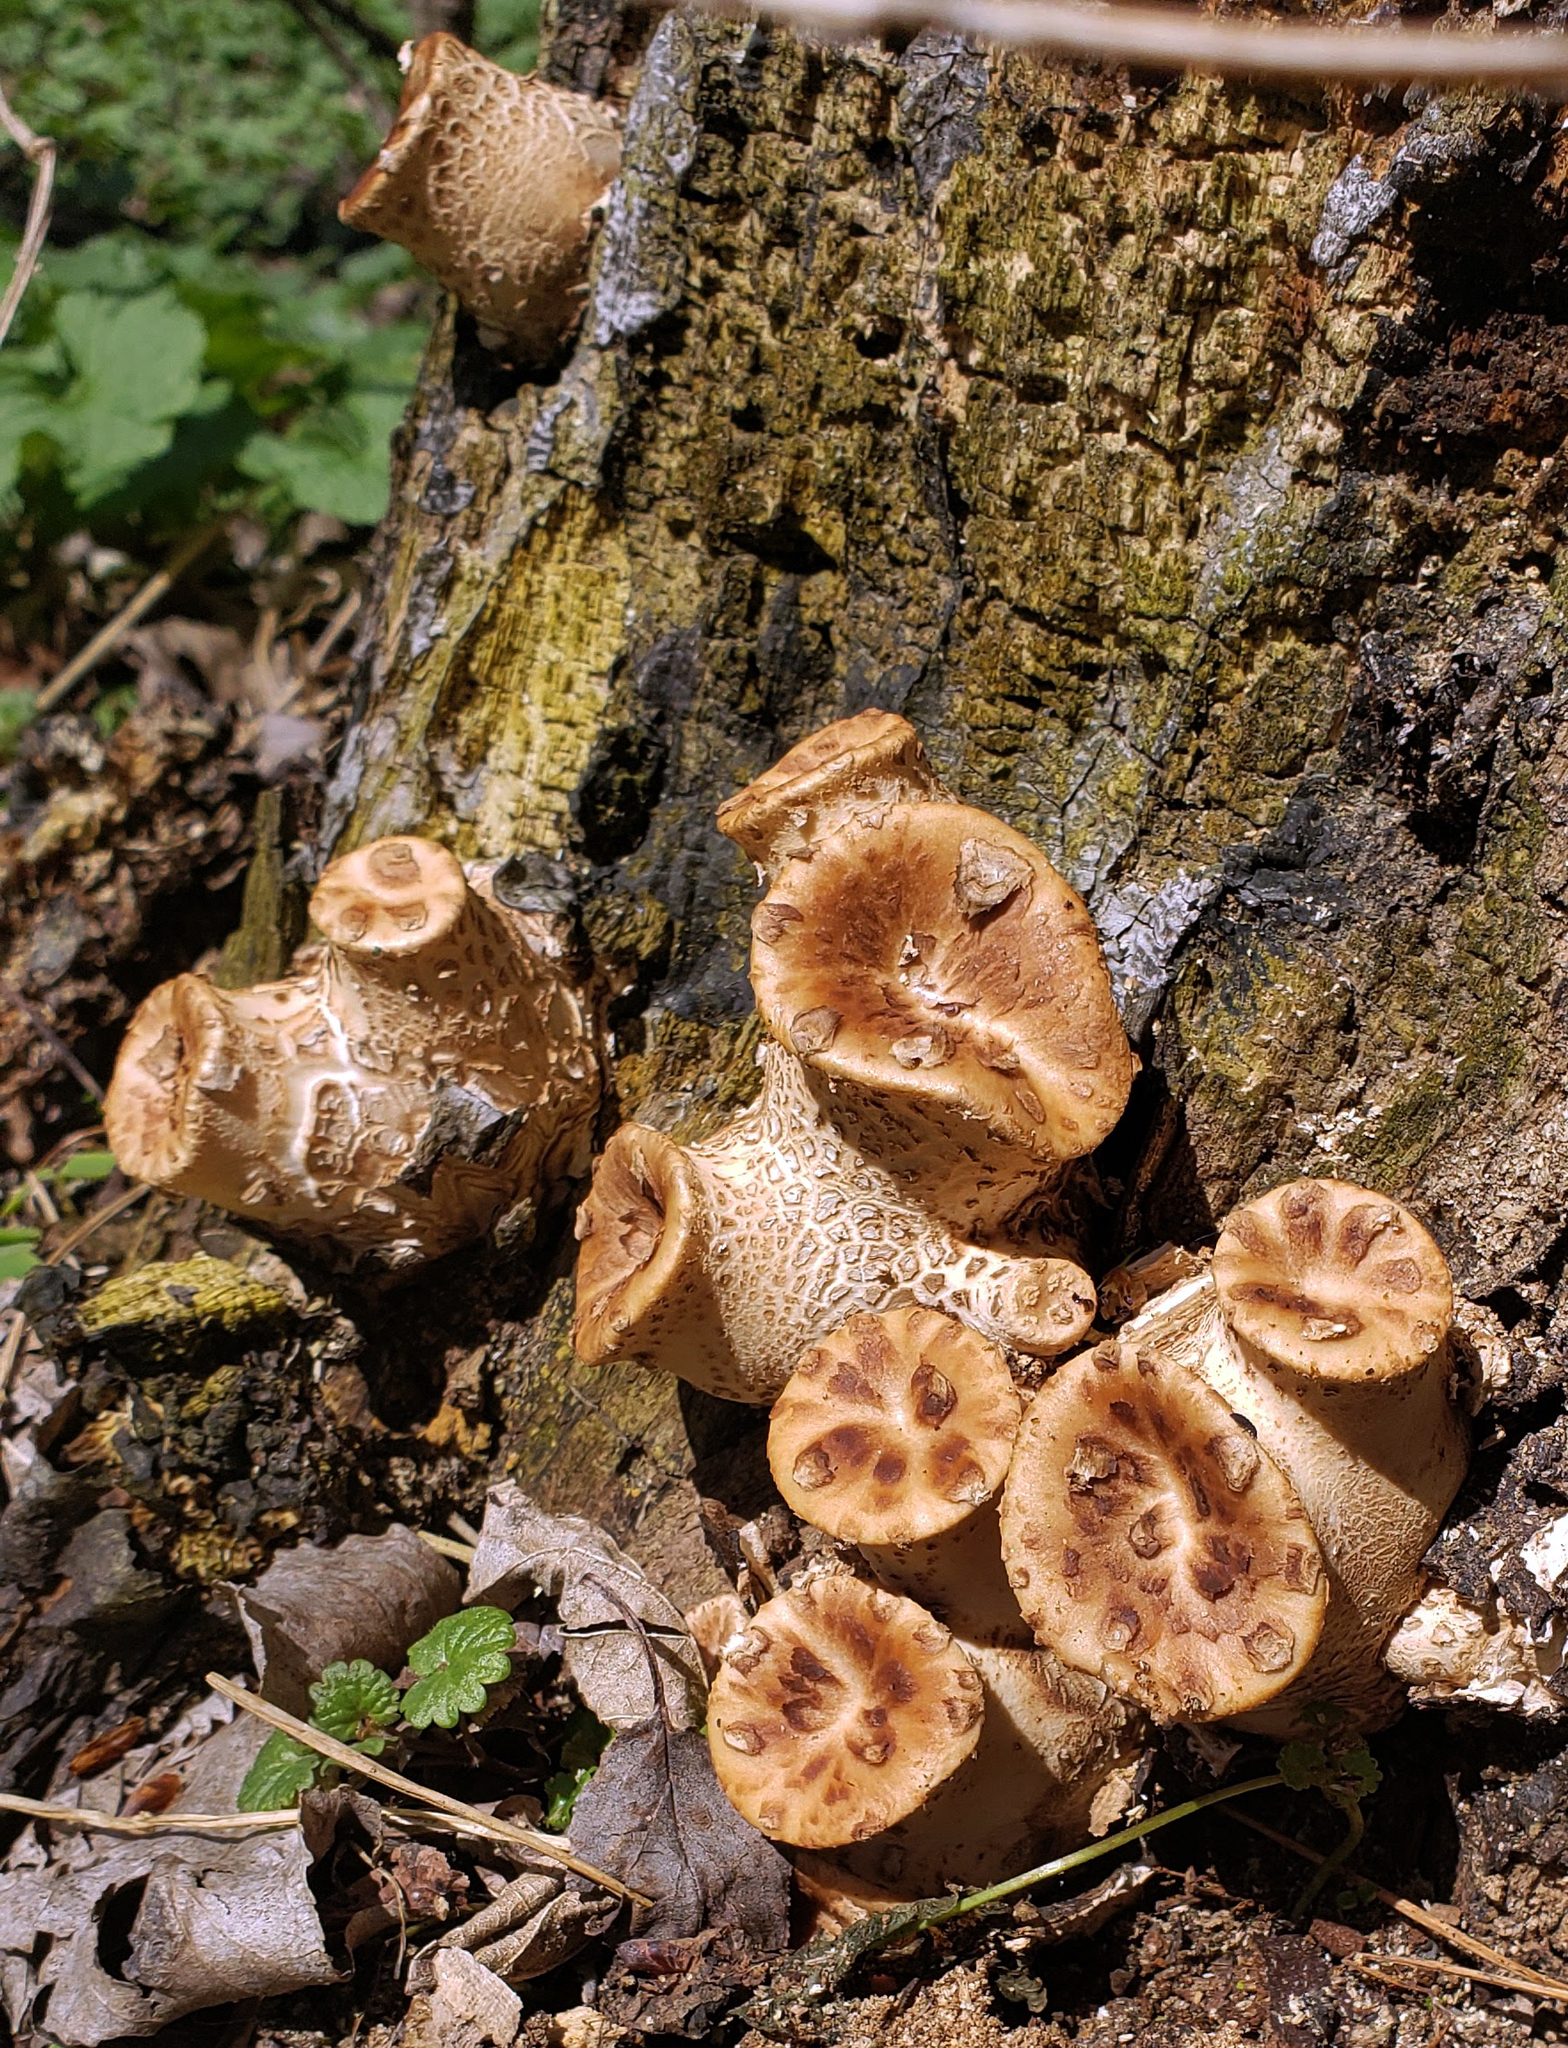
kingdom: Fungi
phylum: Basidiomycota
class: Agaricomycetes
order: Polyporales
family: Polyporaceae
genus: Cerioporus
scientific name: Cerioporus squamosus
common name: Dryad's saddle
